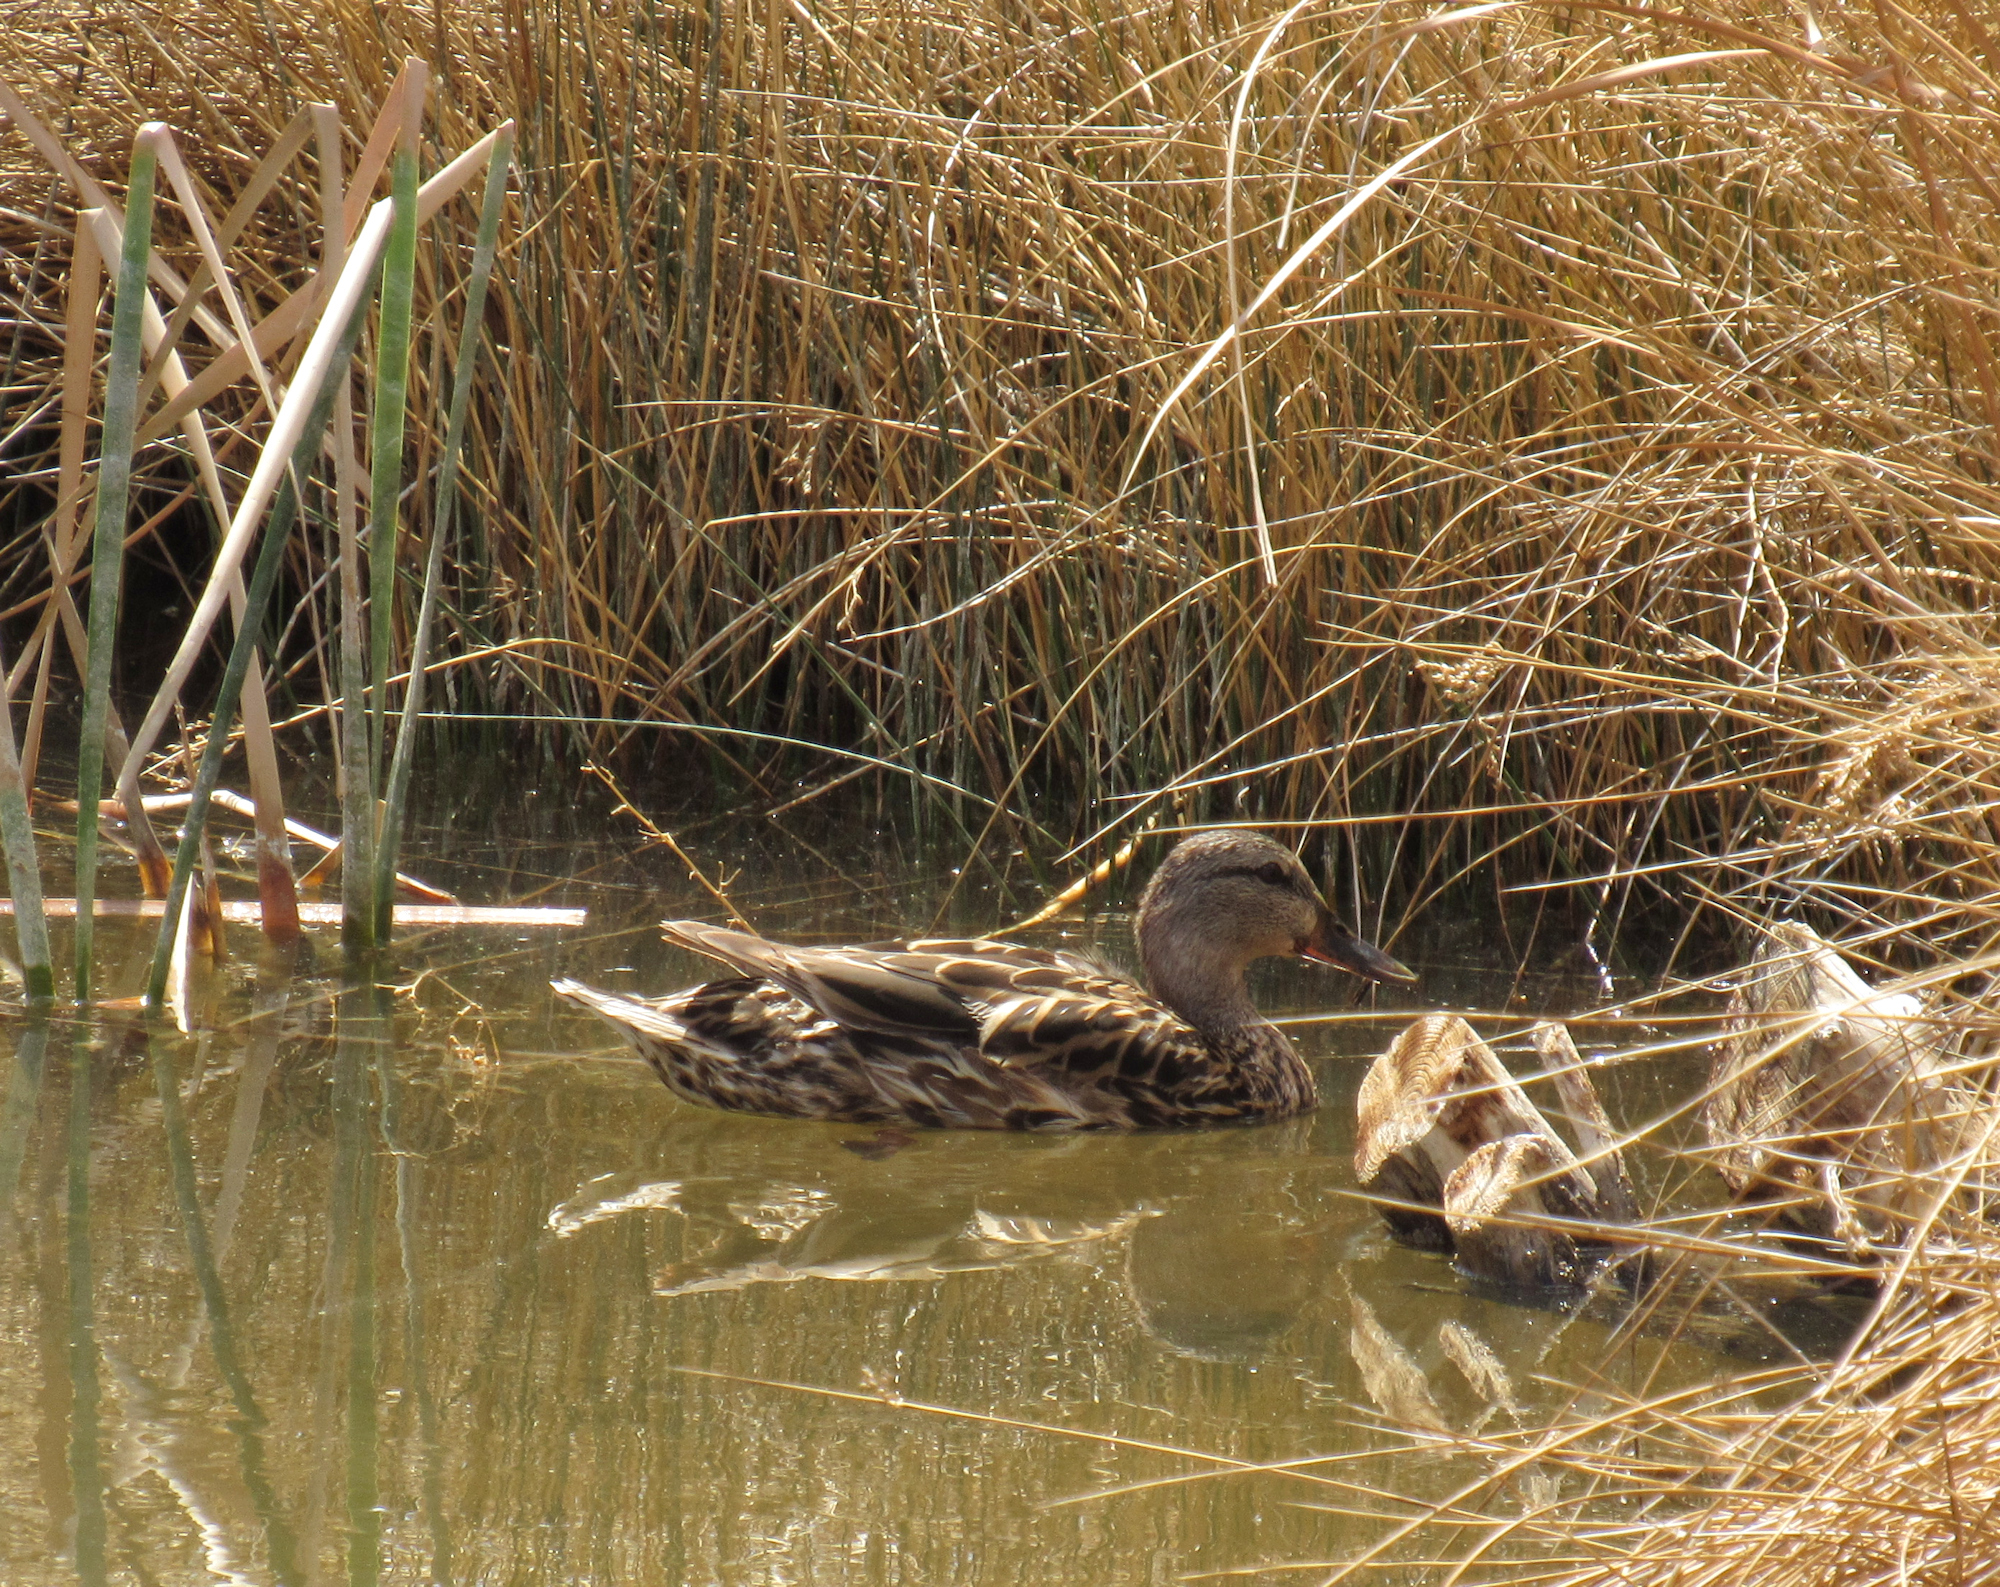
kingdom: Animalia
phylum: Chordata
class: Aves
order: Anseriformes
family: Anatidae
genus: Anas
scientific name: Anas platyrhynchos
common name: Mallard
